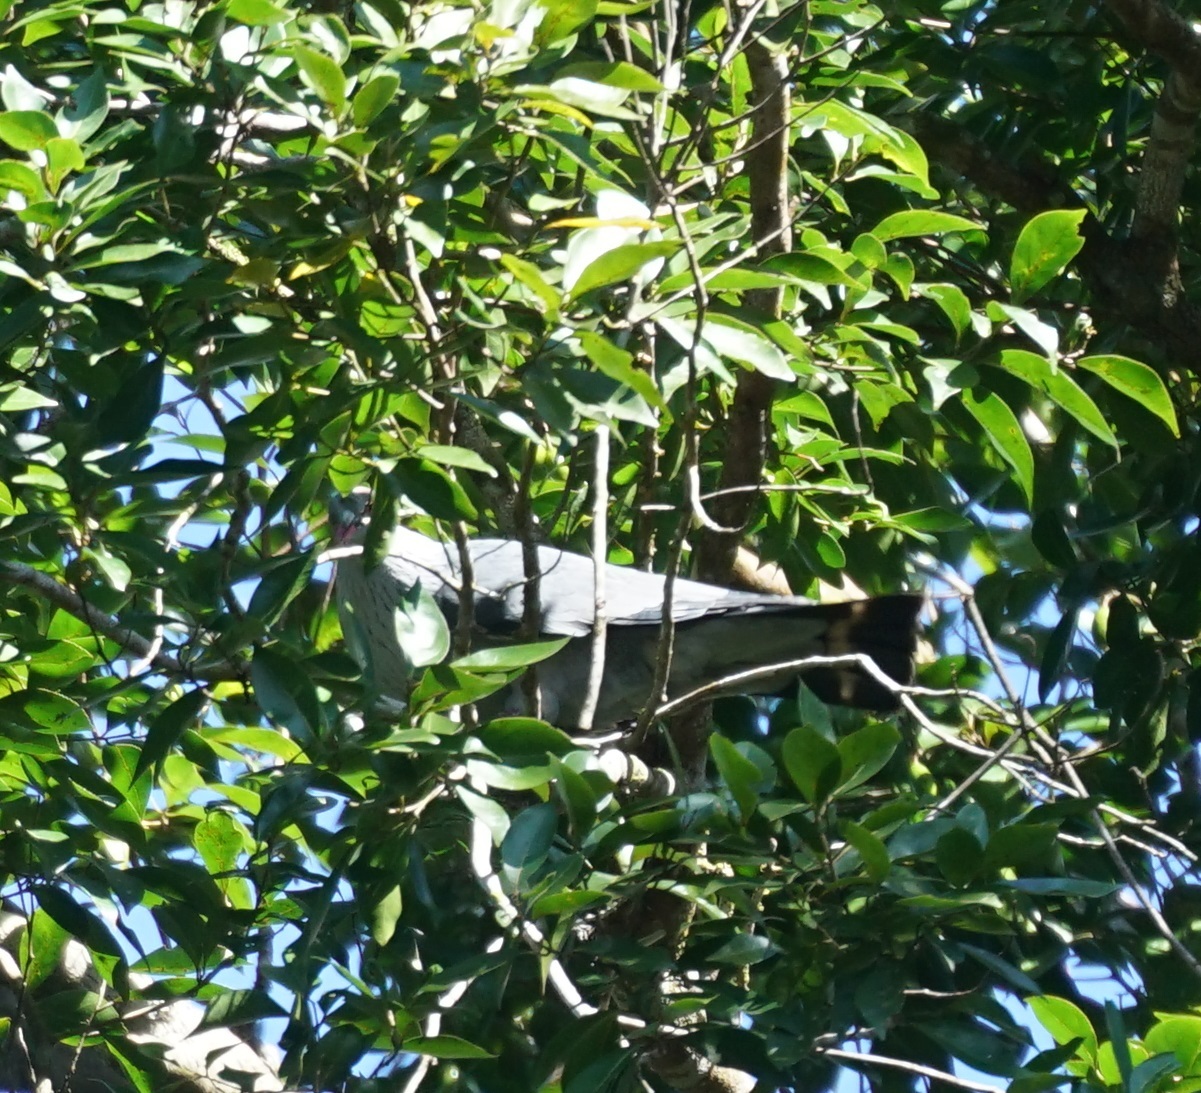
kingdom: Animalia
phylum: Chordata
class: Aves
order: Columbiformes
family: Columbidae
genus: Lopholaimus
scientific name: Lopholaimus antarcticus
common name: Topknot pigeon
